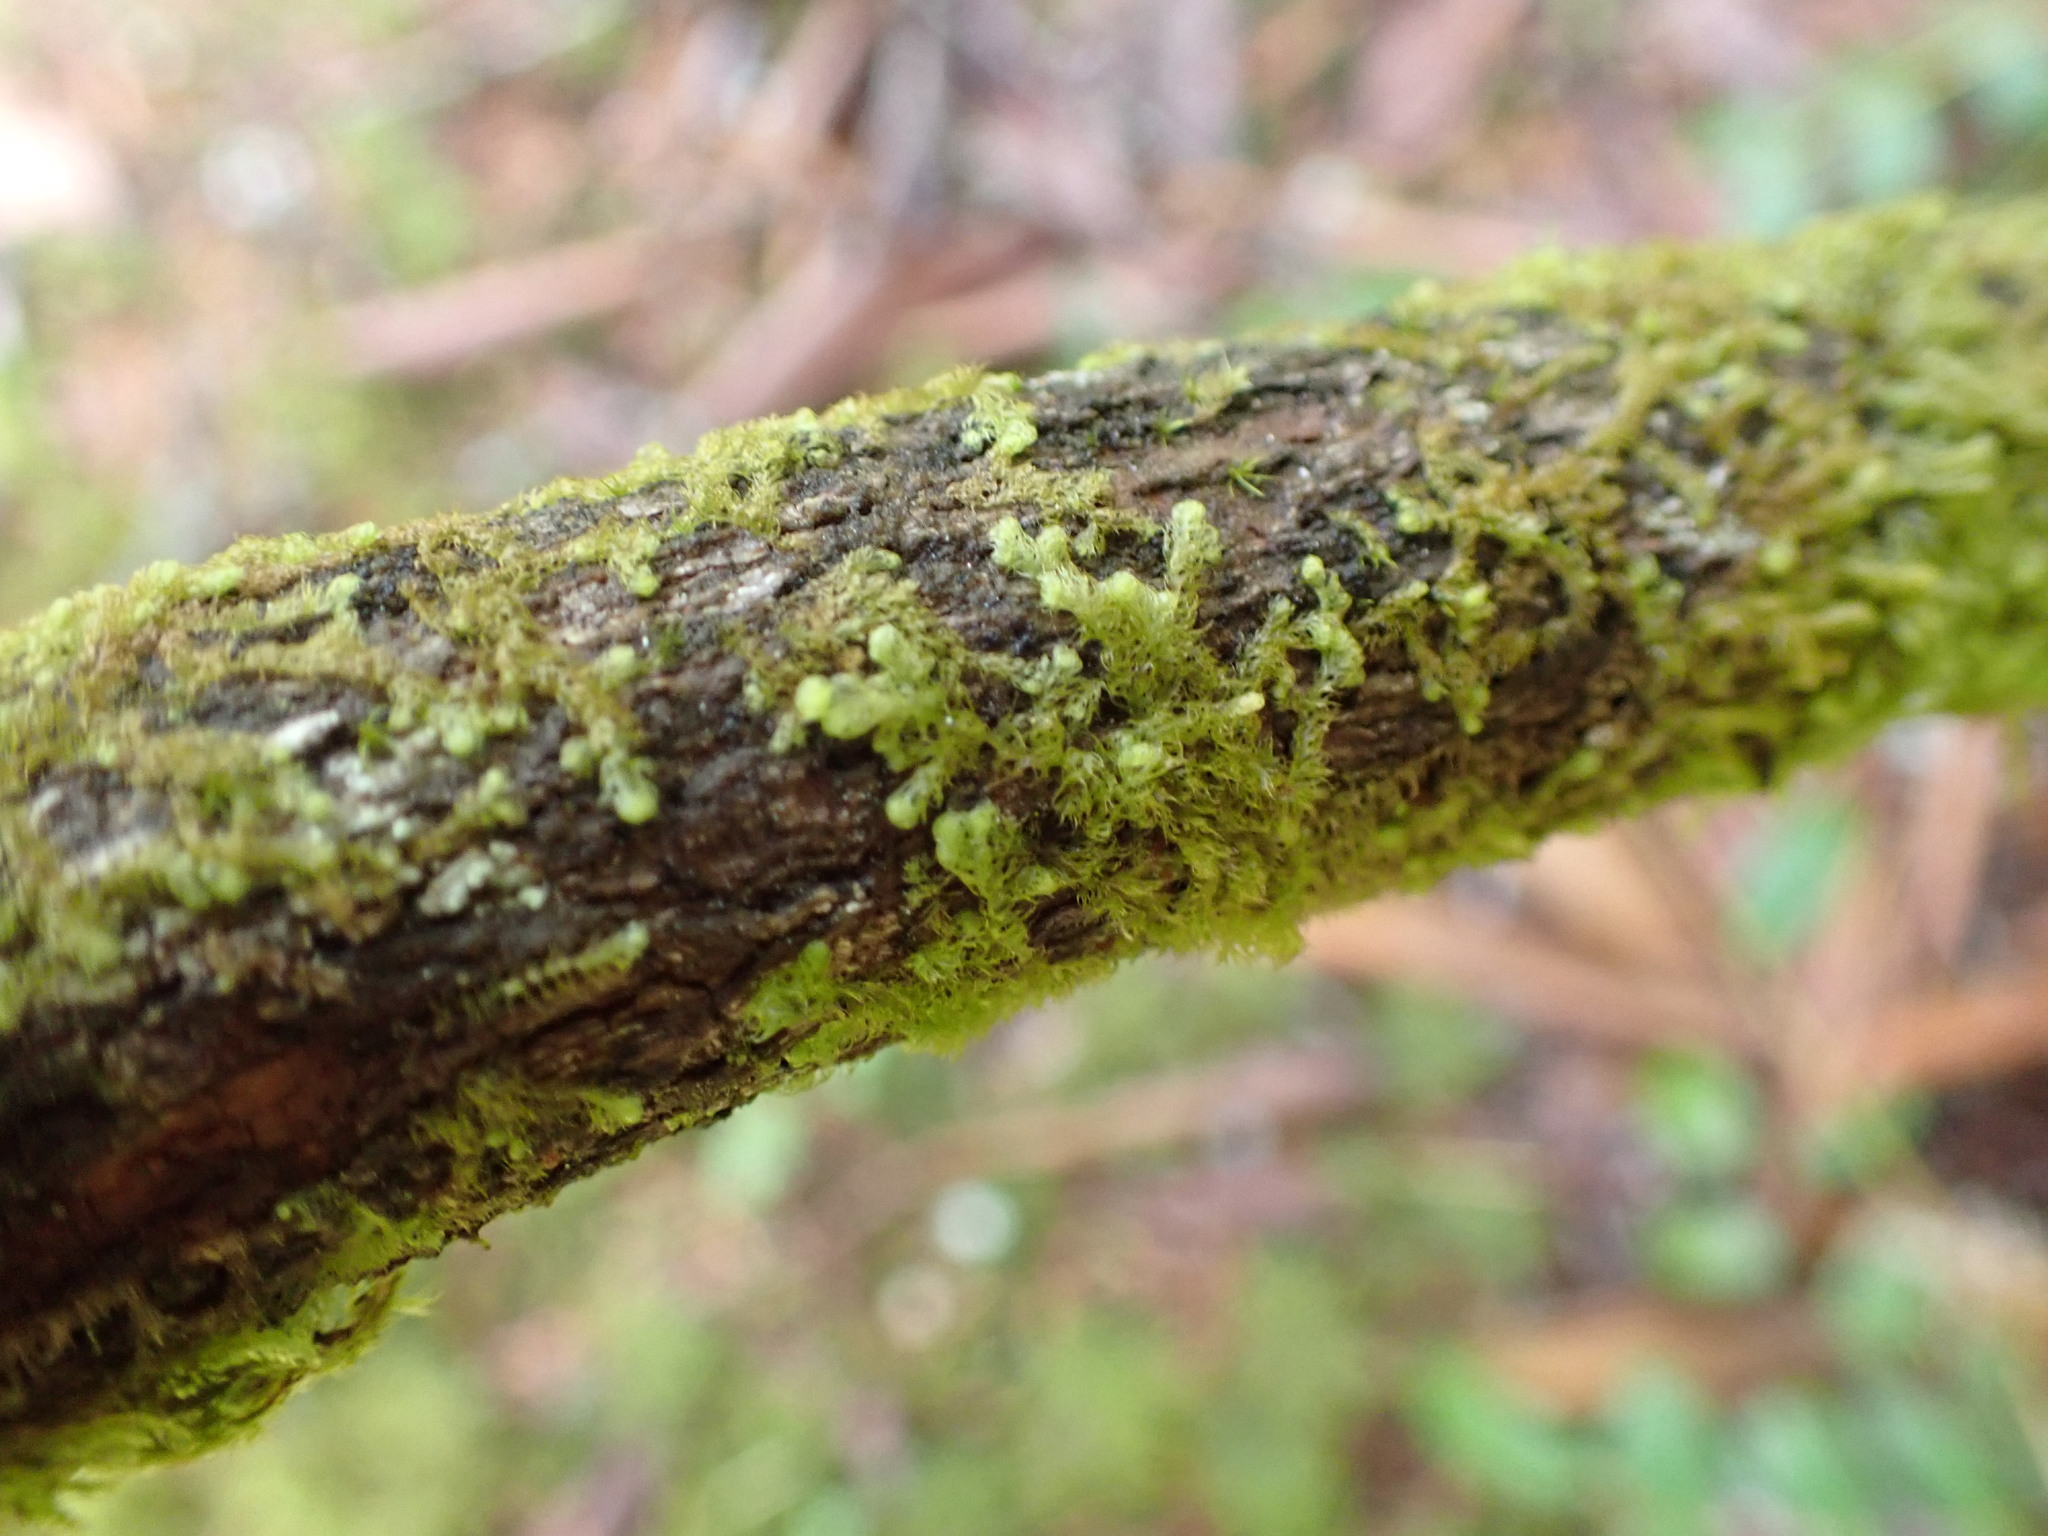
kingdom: Plantae
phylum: Marchantiophyta
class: Jungermanniopsida
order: Ptilidiales
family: Ptilidiaceae
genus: Ptilidium
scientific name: Ptilidium californicum
